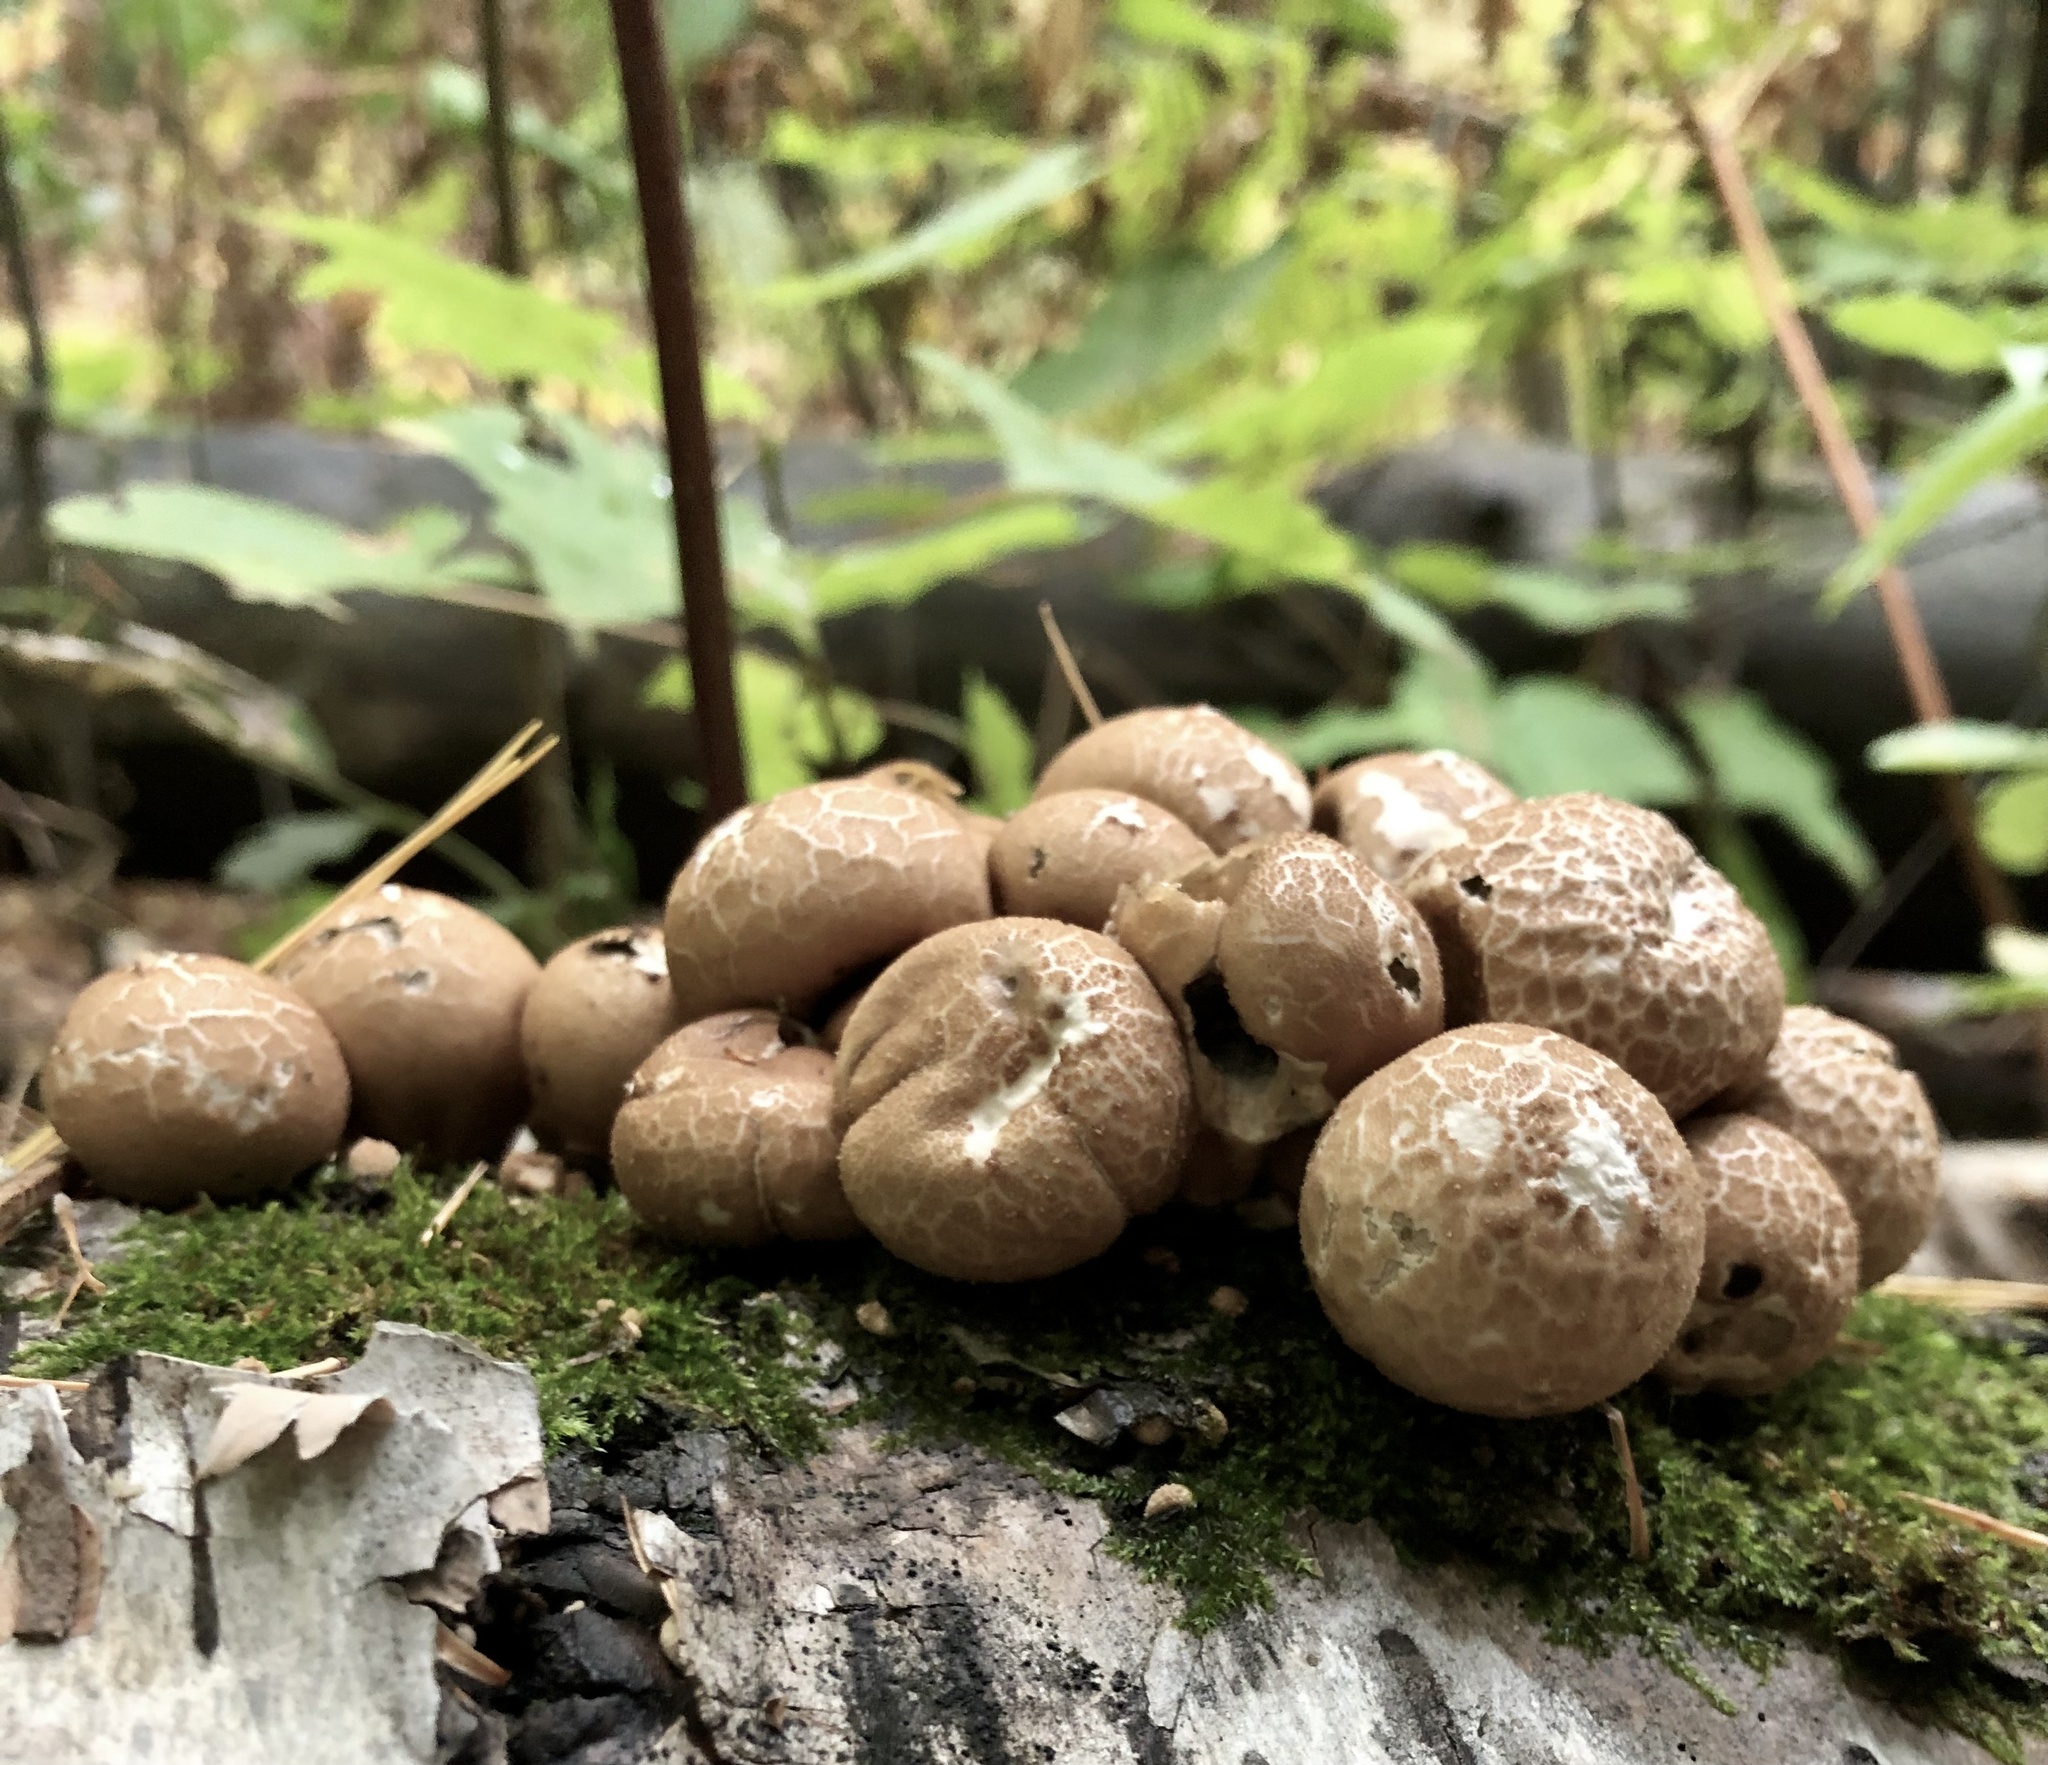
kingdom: Fungi
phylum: Basidiomycota
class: Agaricomycetes
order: Agaricales
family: Lycoperdaceae
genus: Apioperdon
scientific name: Apioperdon pyriforme
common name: Pear-shaped puffball
